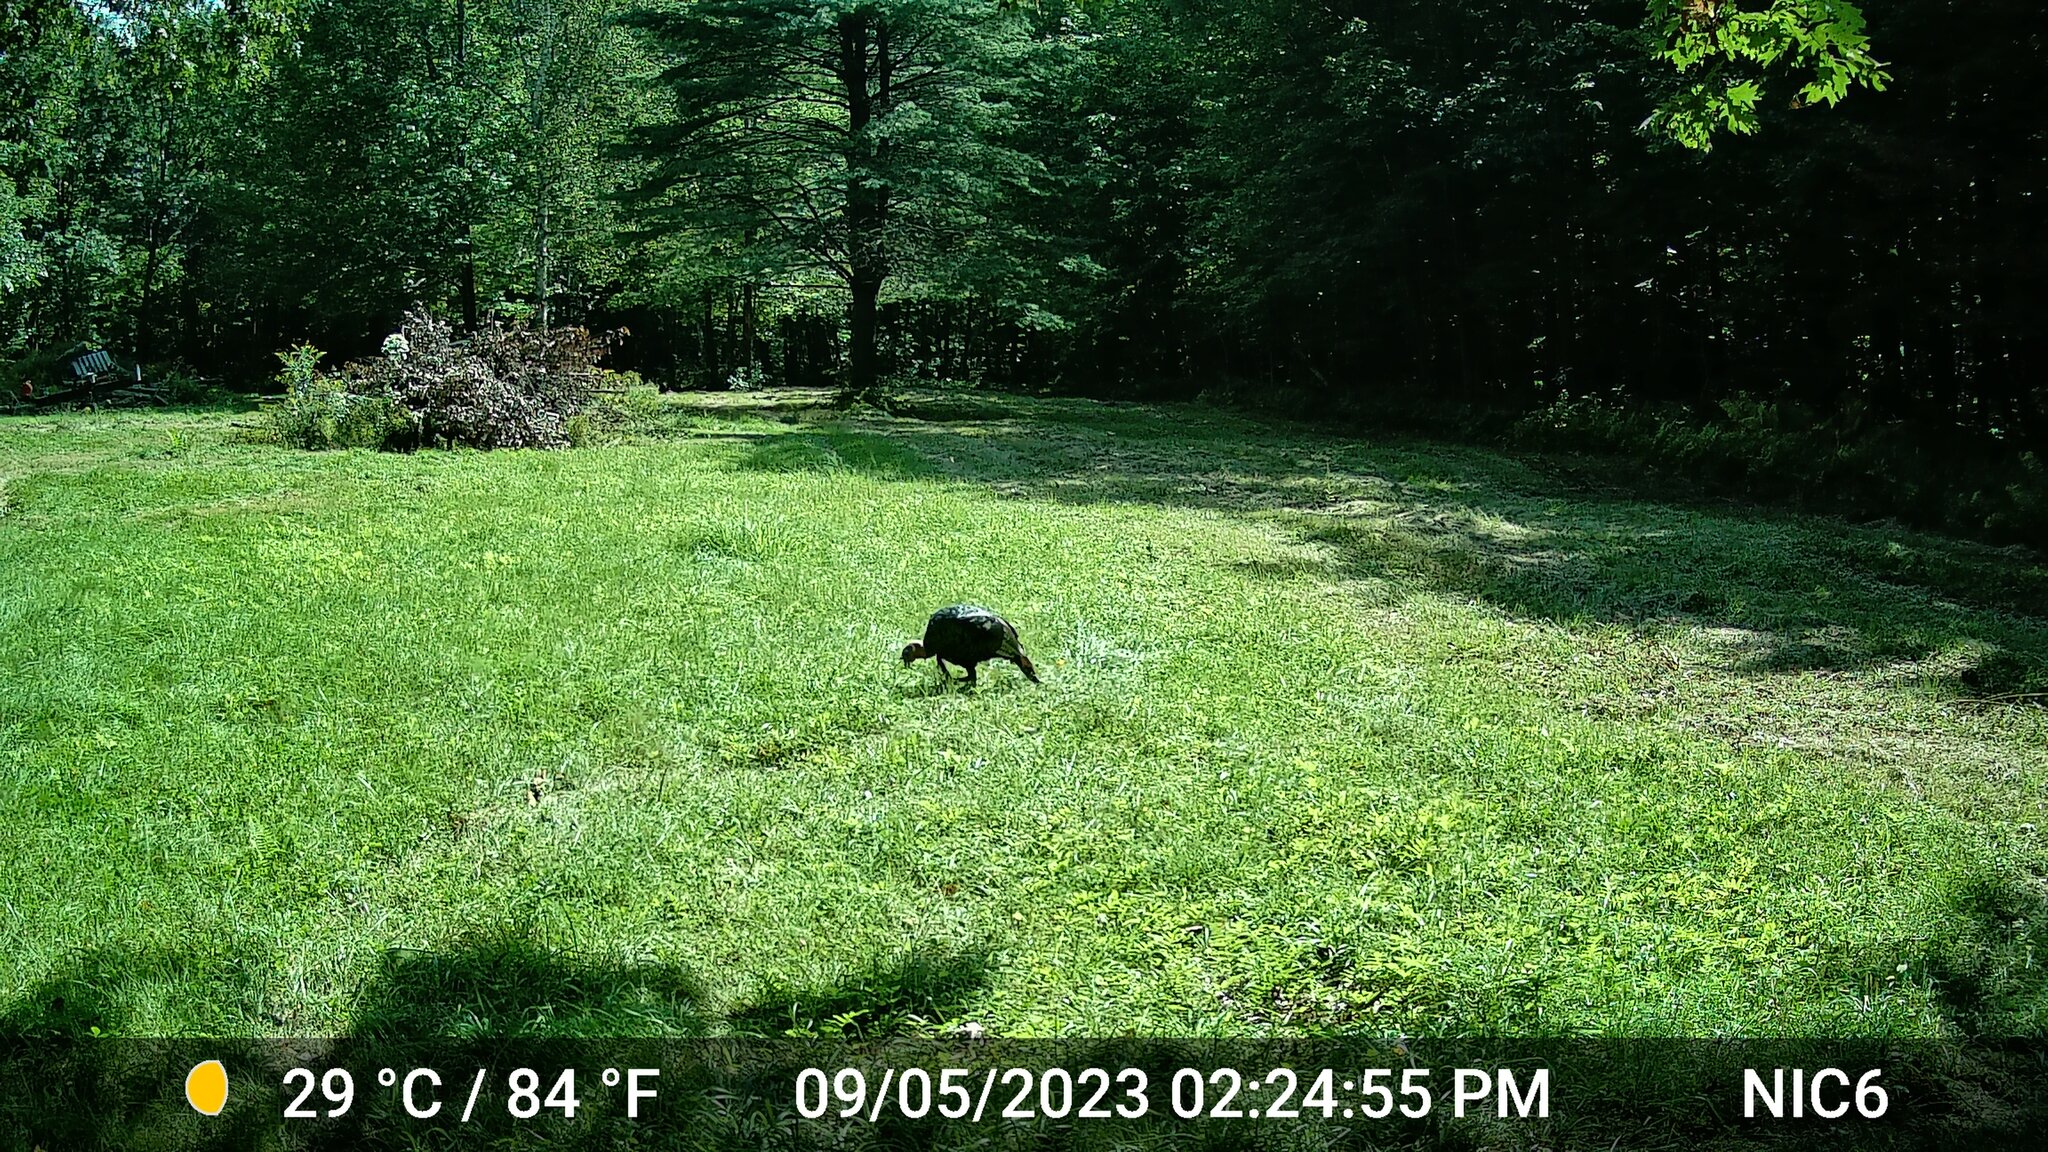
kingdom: Animalia
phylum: Chordata
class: Aves
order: Galliformes
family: Phasianidae
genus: Meleagris
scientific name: Meleagris gallopavo
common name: Wild turkey
